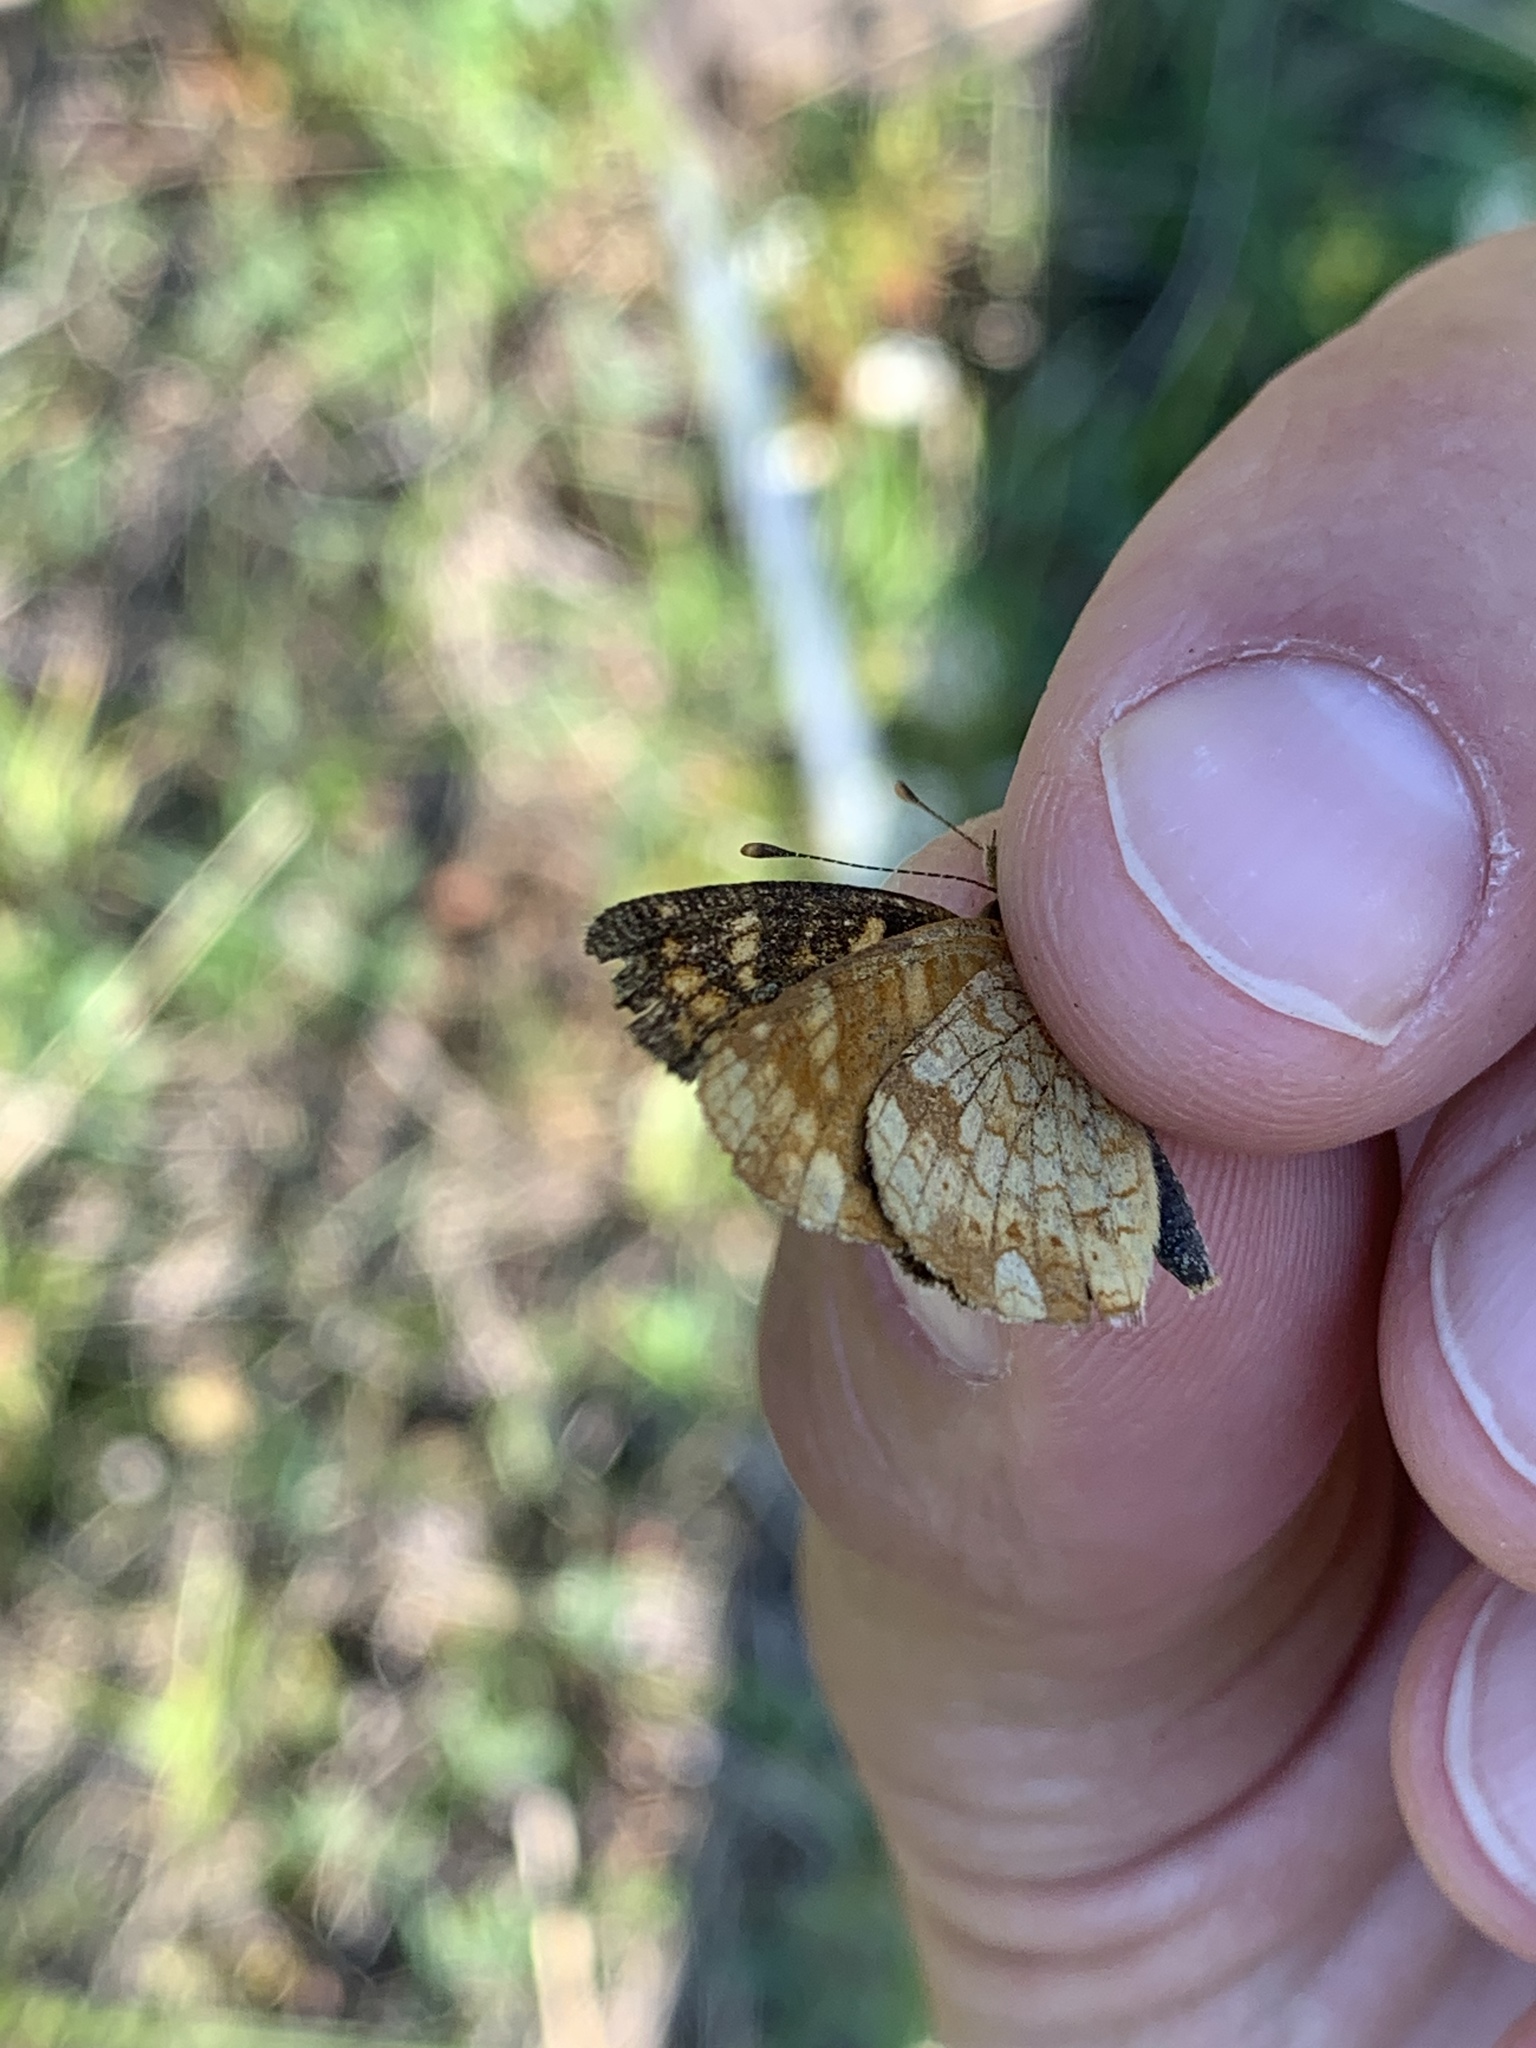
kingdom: Animalia
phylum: Arthropoda
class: Insecta
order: Lepidoptera
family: Nymphalidae
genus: Phyciodes
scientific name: Phyciodes tharos
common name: Pearl crescent
